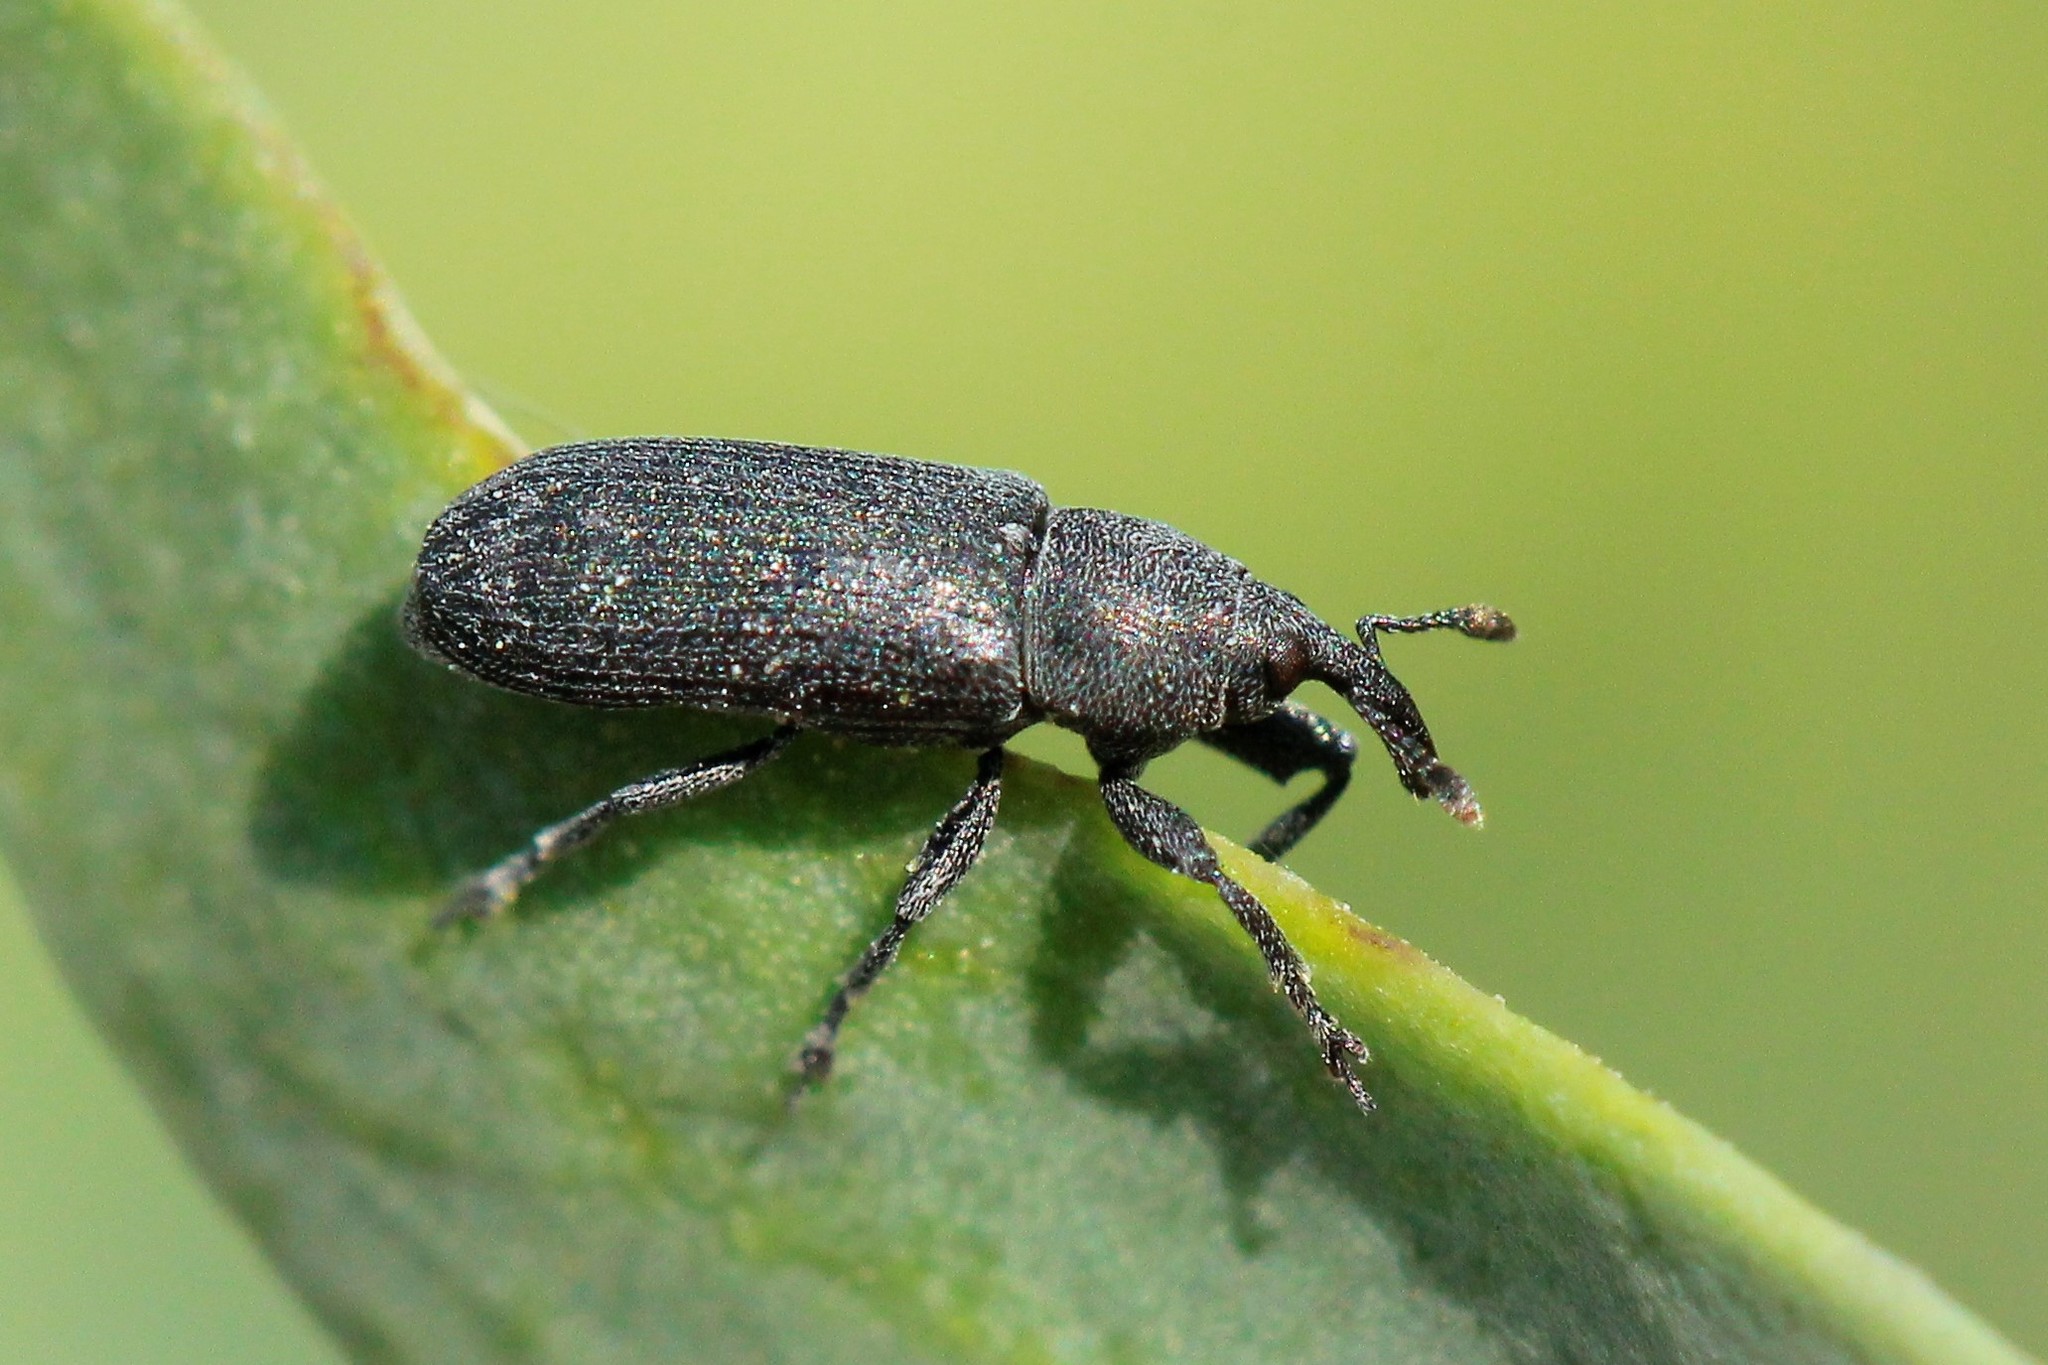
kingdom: Animalia
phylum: Arthropoda
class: Insecta
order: Coleoptera
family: Curculionidae
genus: Mecinus
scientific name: Mecinus janthiniformis
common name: Dalmatian toadflax stem weevil
